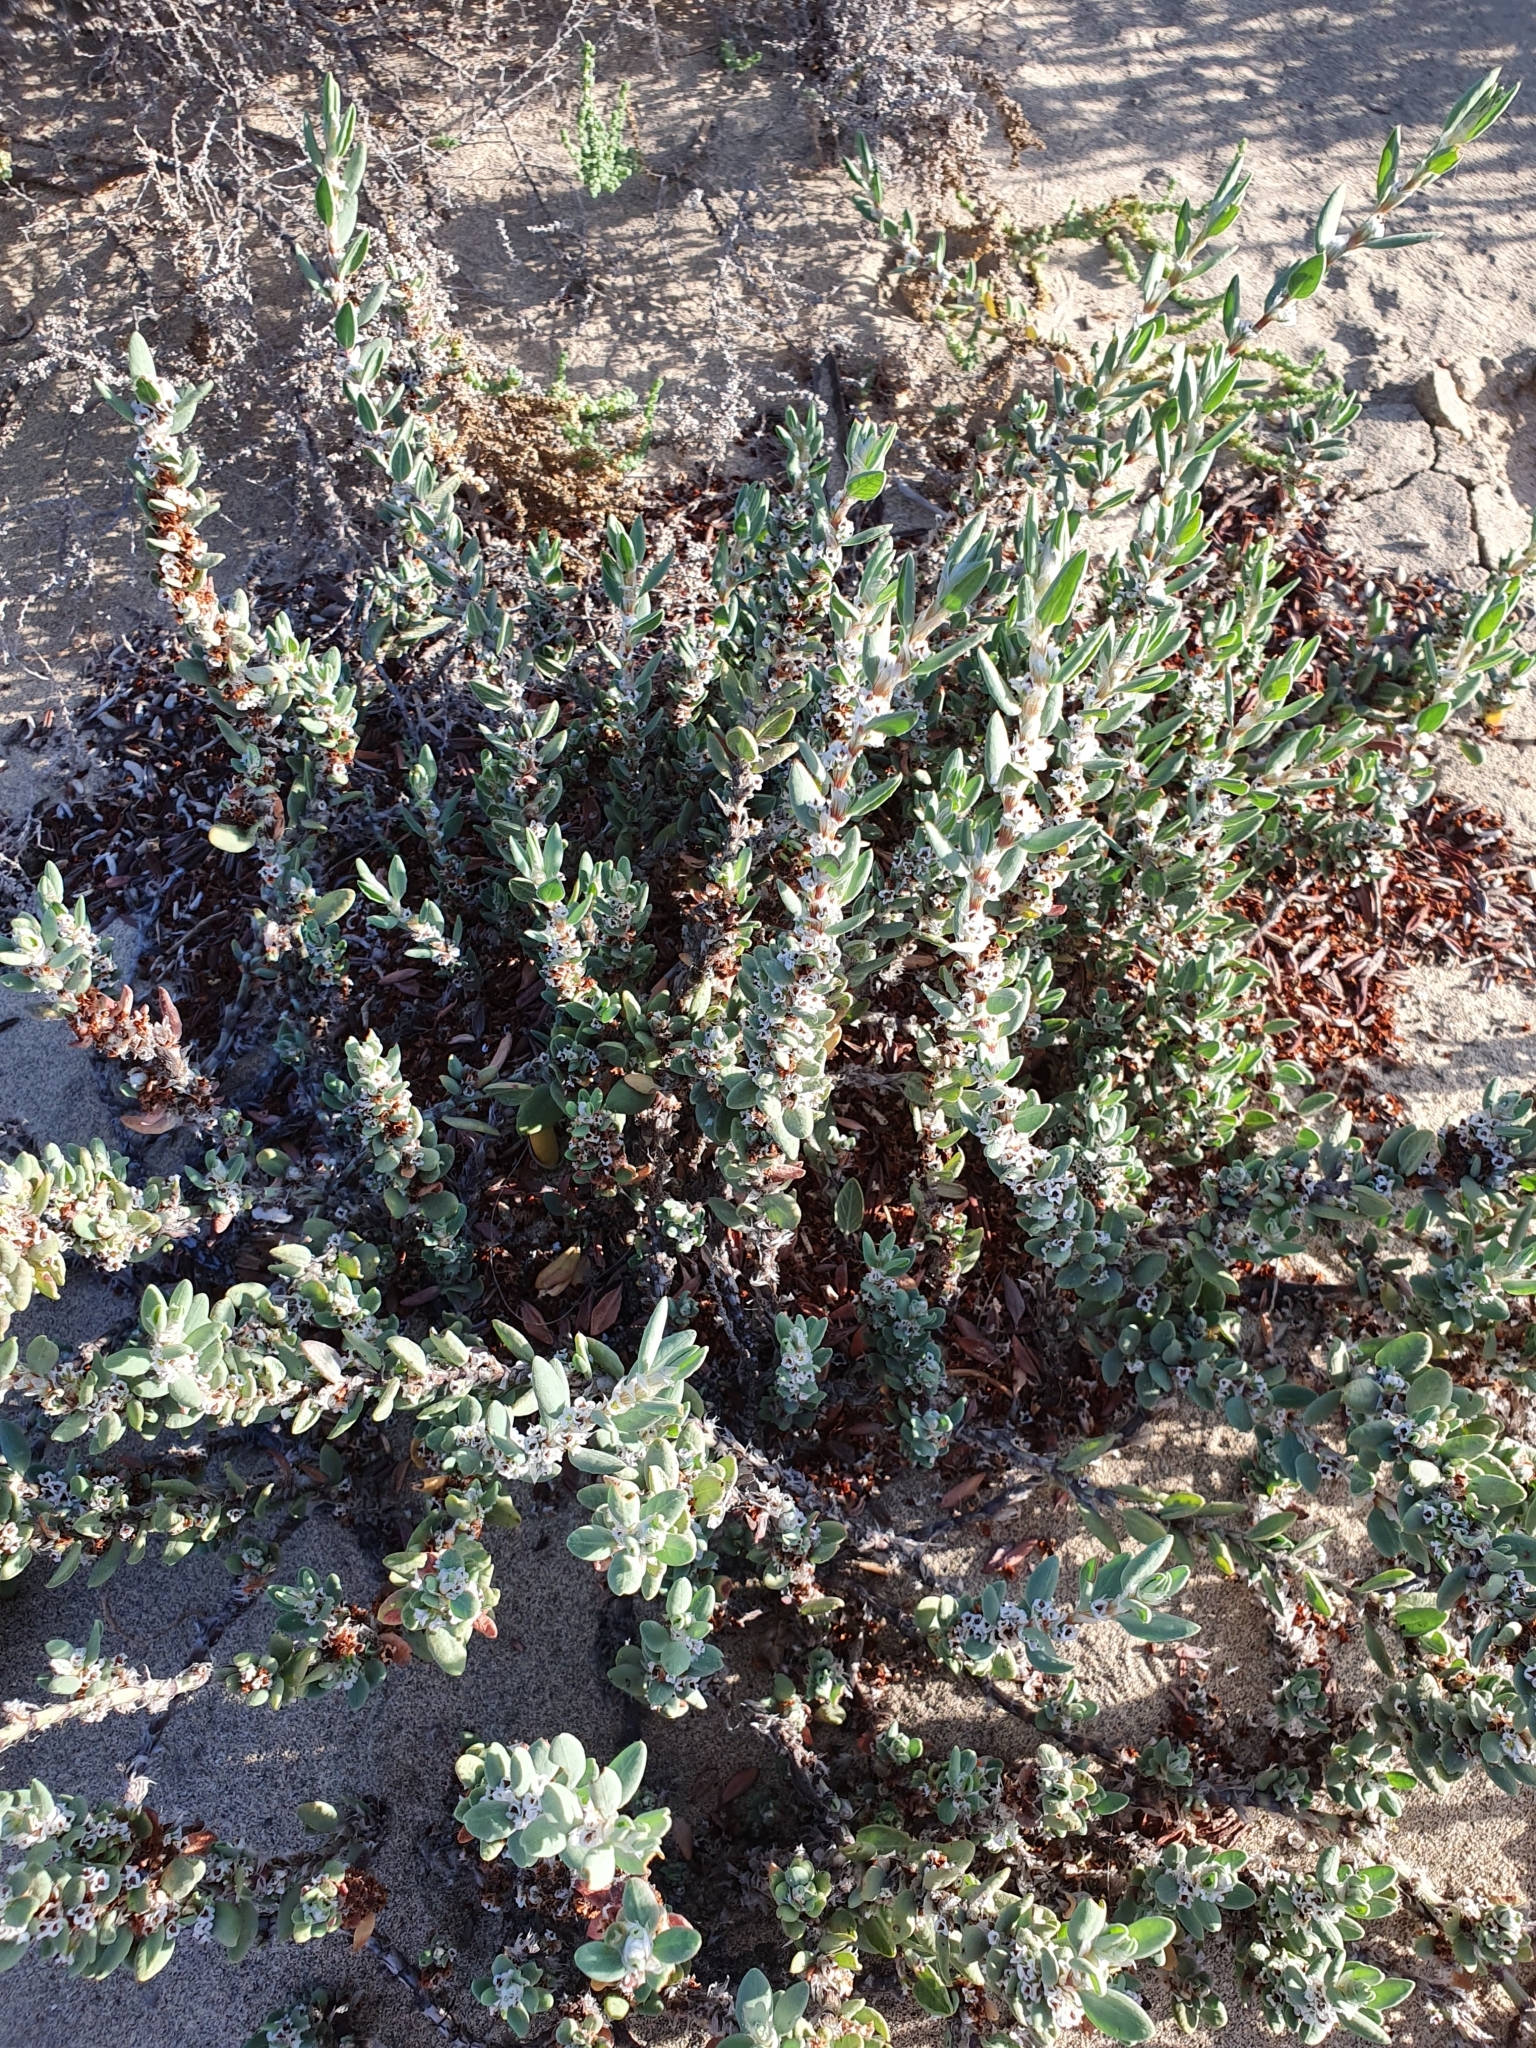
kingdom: Plantae
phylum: Tracheophyta
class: Magnoliopsida
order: Caryophyllales
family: Polygonaceae
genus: Polygonum
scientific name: Polygonum maritimum
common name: Sea knotgrass
